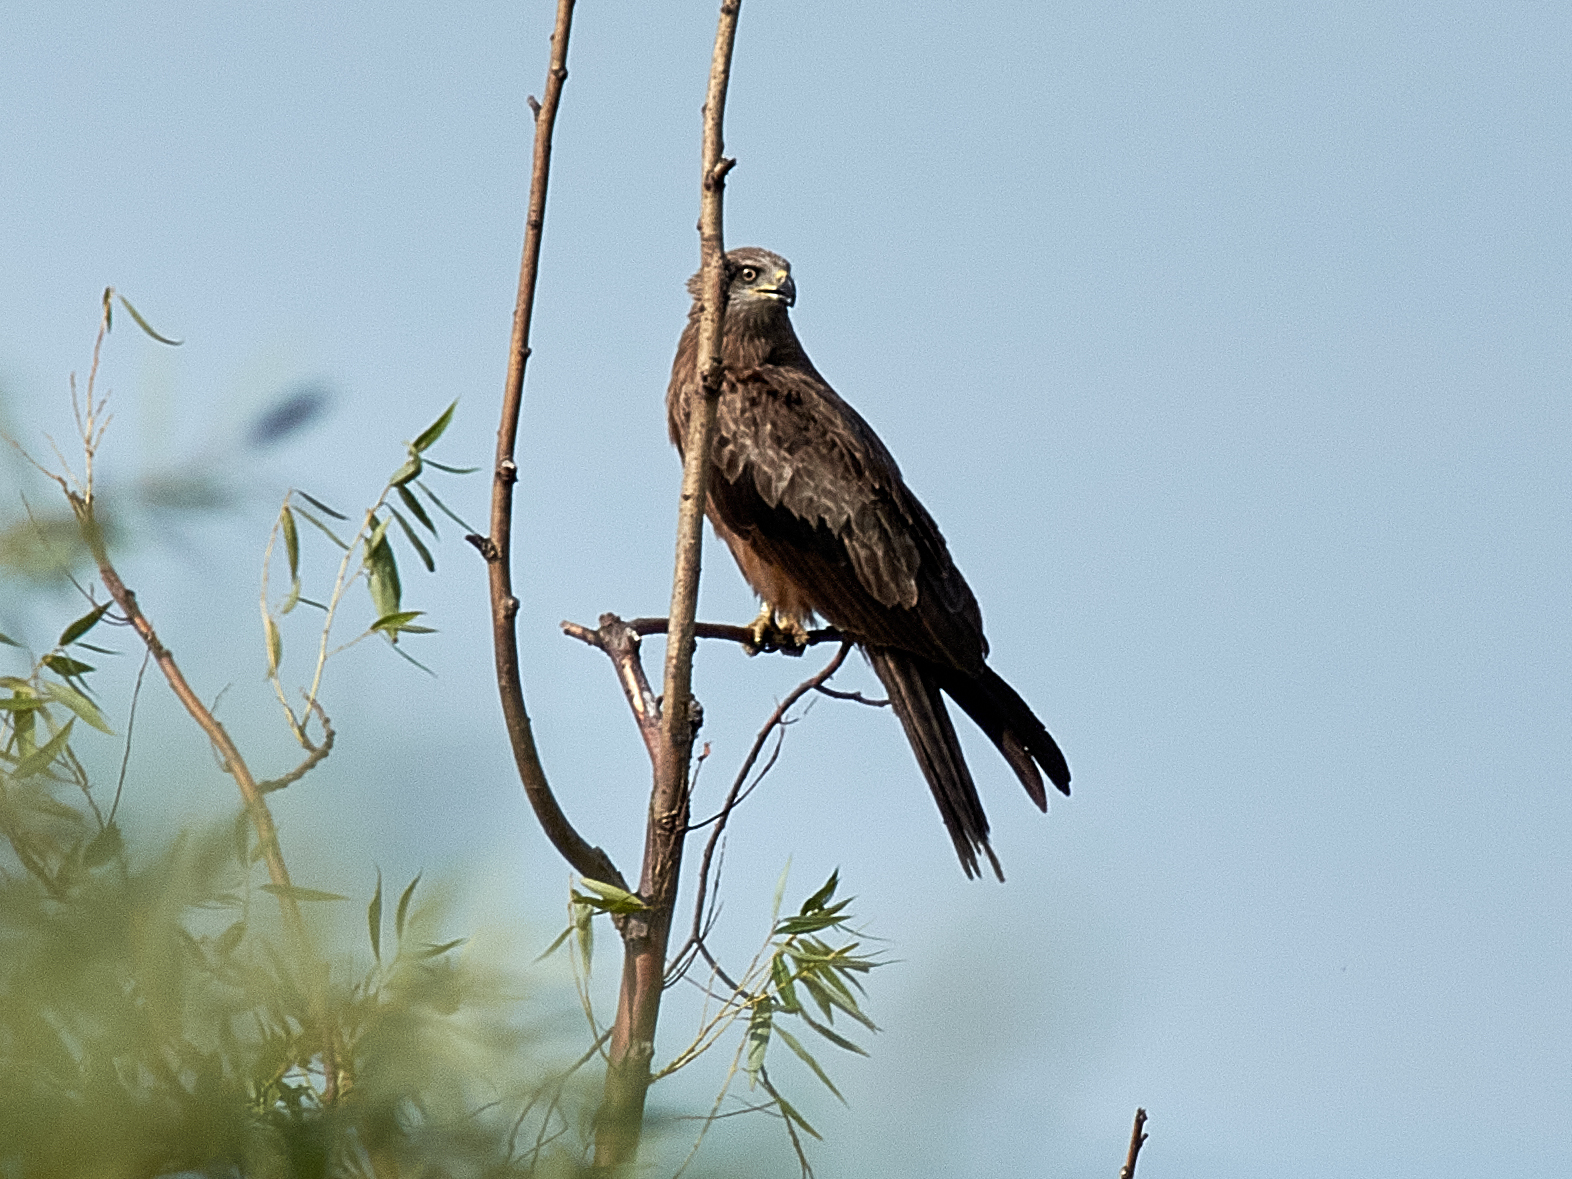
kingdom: Animalia
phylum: Chordata
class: Aves
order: Accipitriformes
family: Accipitridae
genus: Milvus
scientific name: Milvus migrans
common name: Black kite
